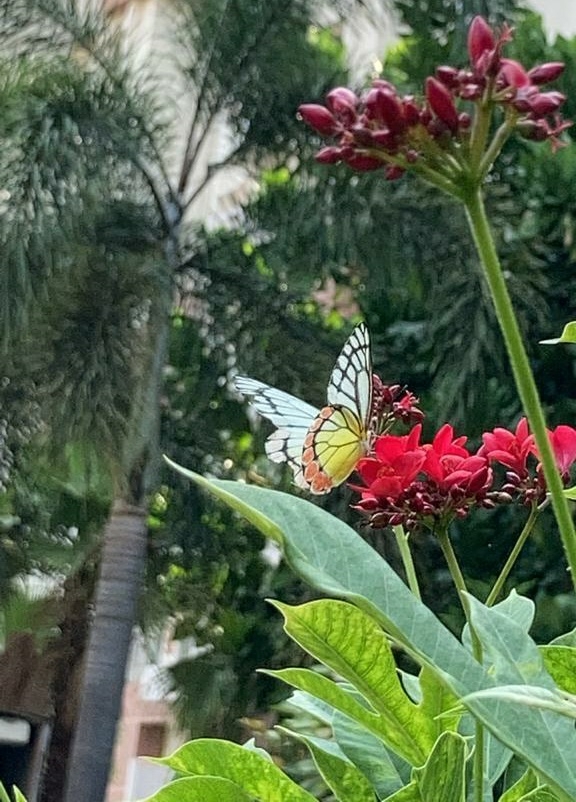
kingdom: Animalia
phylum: Arthropoda
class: Insecta
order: Lepidoptera
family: Pieridae
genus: Delias
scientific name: Delias eucharis
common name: Common jezebel
